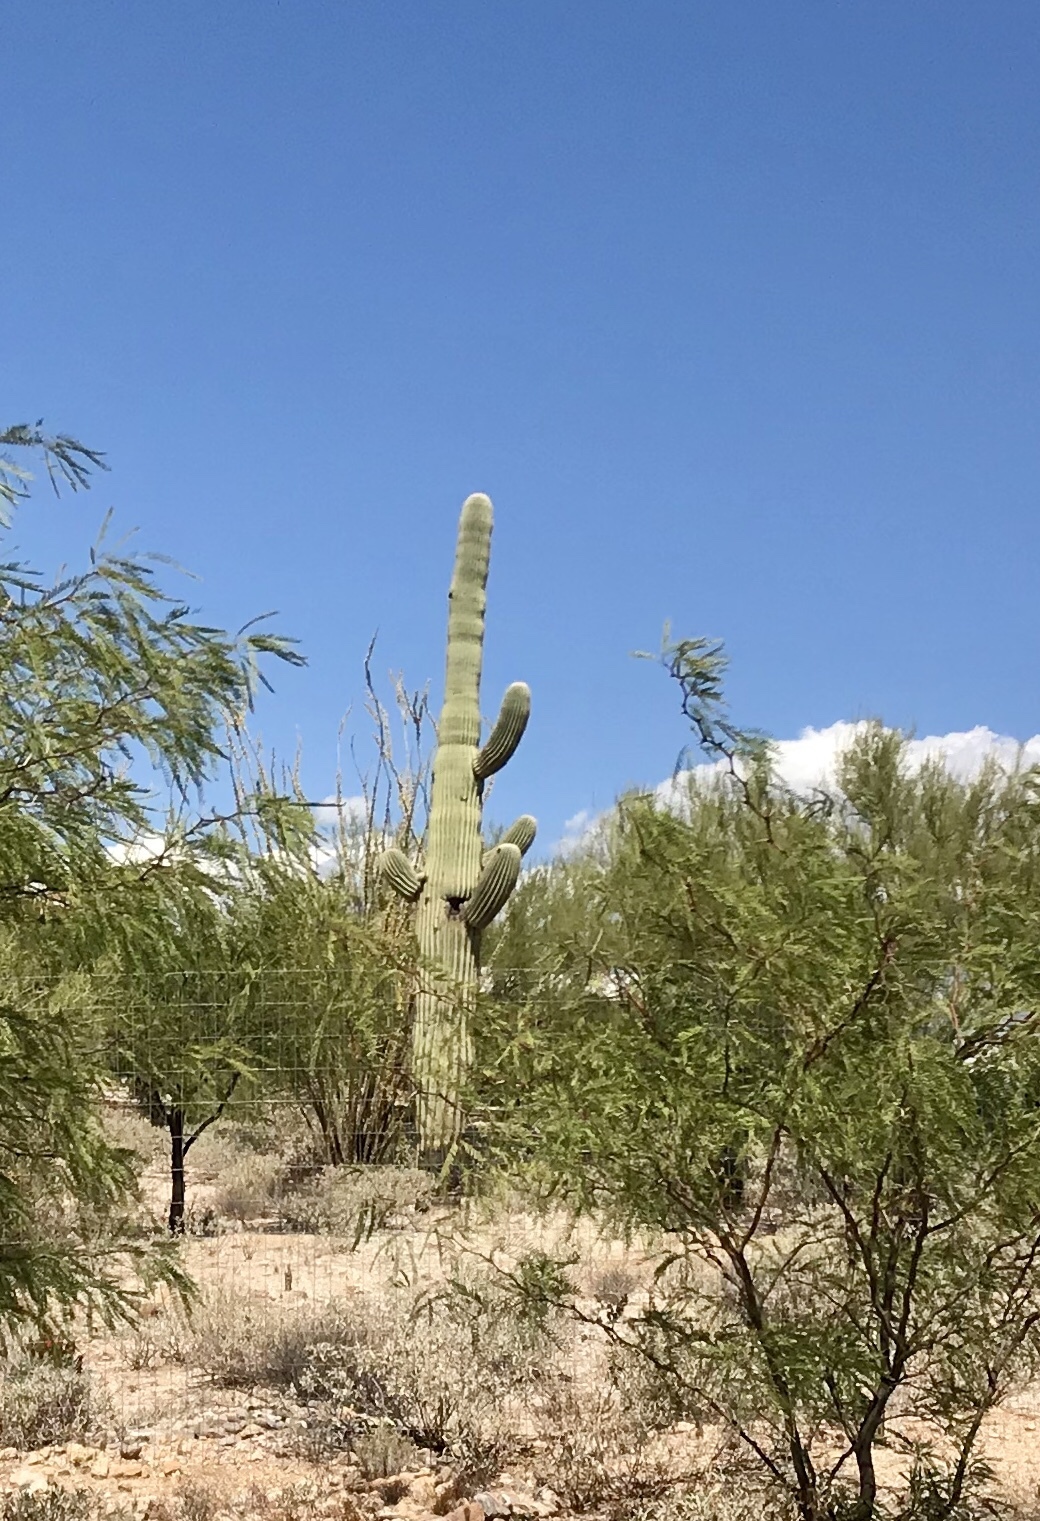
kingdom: Plantae
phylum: Tracheophyta
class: Magnoliopsida
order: Caryophyllales
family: Cactaceae
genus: Carnegiea
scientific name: Carnegiea gigantea
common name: Saguaro
